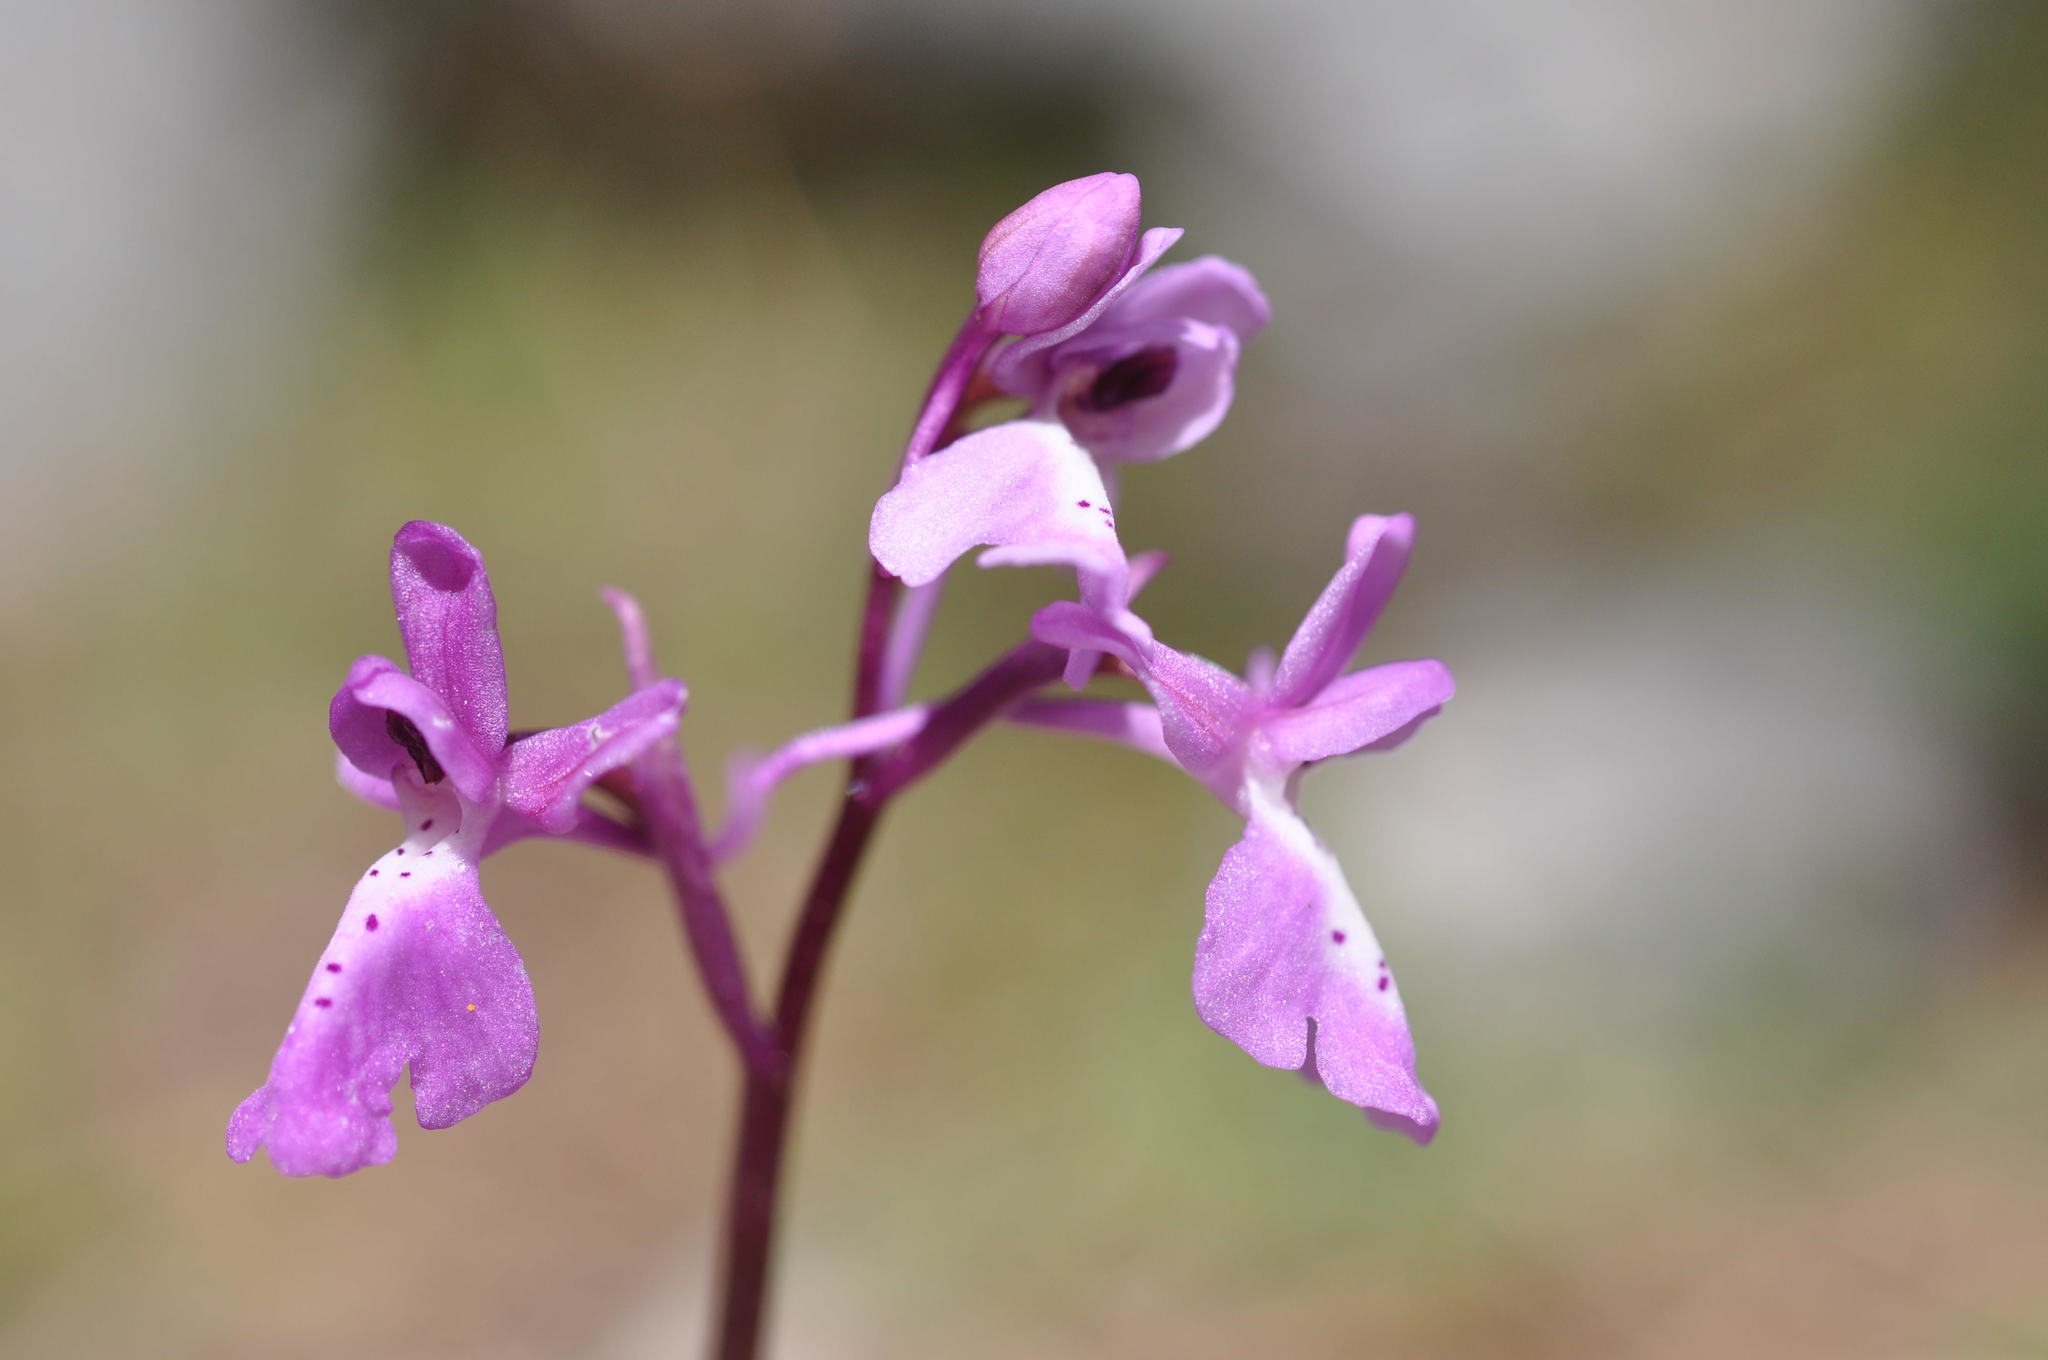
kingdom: Plantae
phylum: Tracheophyta
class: Liliopsida
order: Asparagales
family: Orchidaceae
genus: Orchis
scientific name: Orchis anatolica
